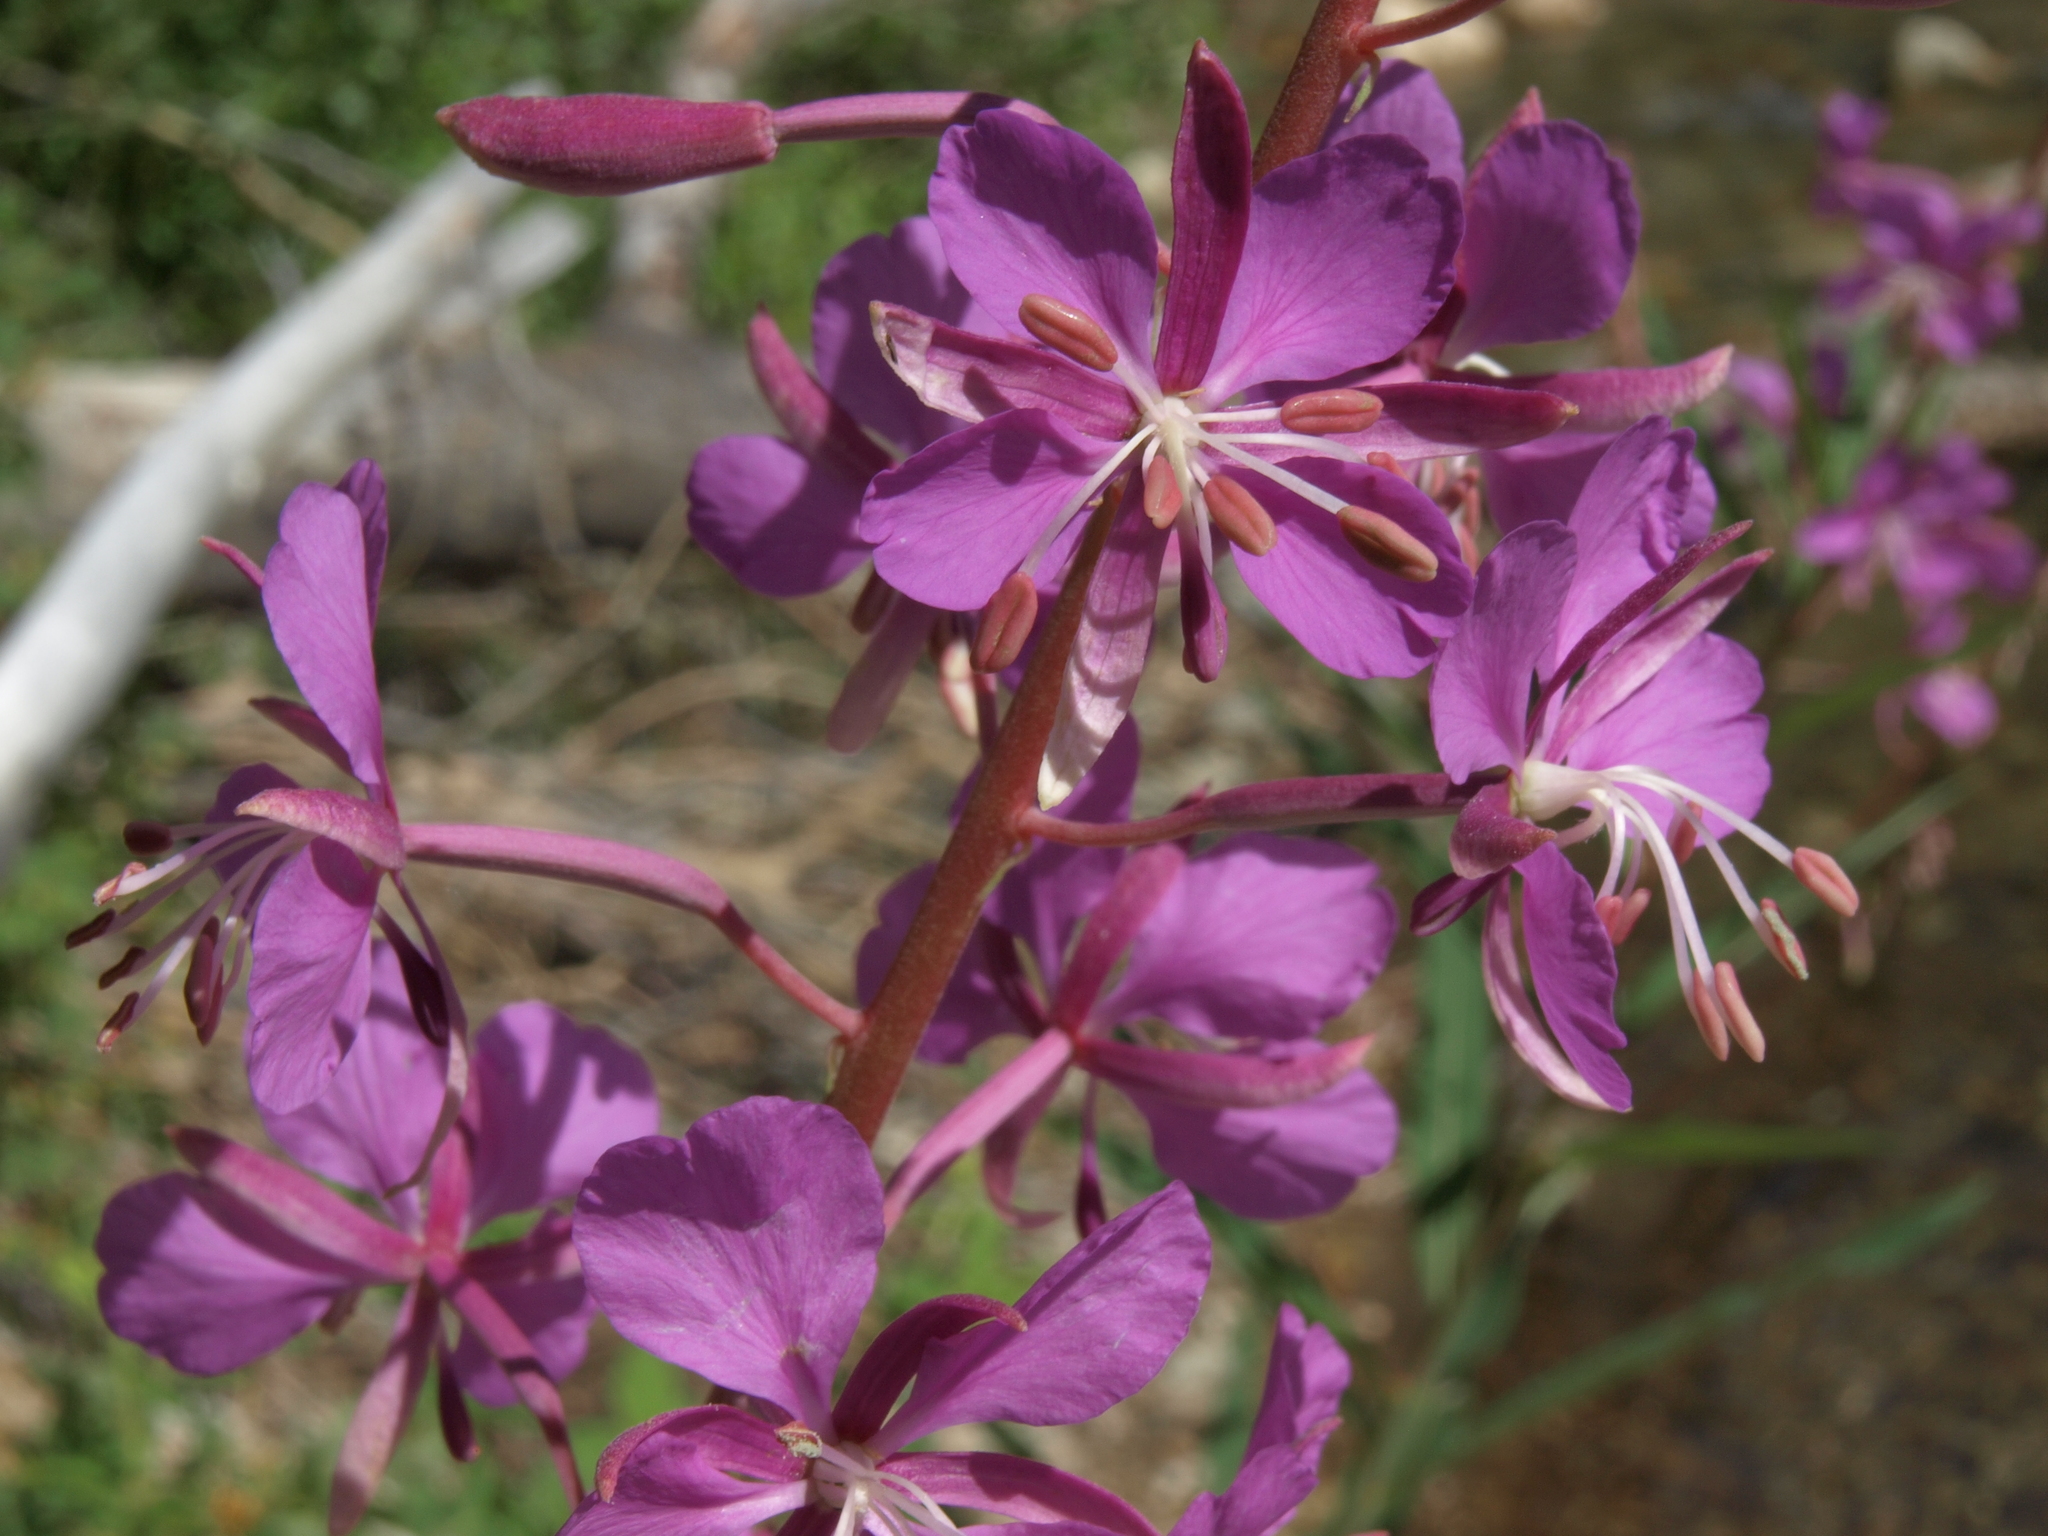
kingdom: Plantae
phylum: Tracheophyta
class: Magnoliopsida
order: Myrtales
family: Onagraceae
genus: Chamaenerion
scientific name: Chamaenerion angustifolium
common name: Fireweed
